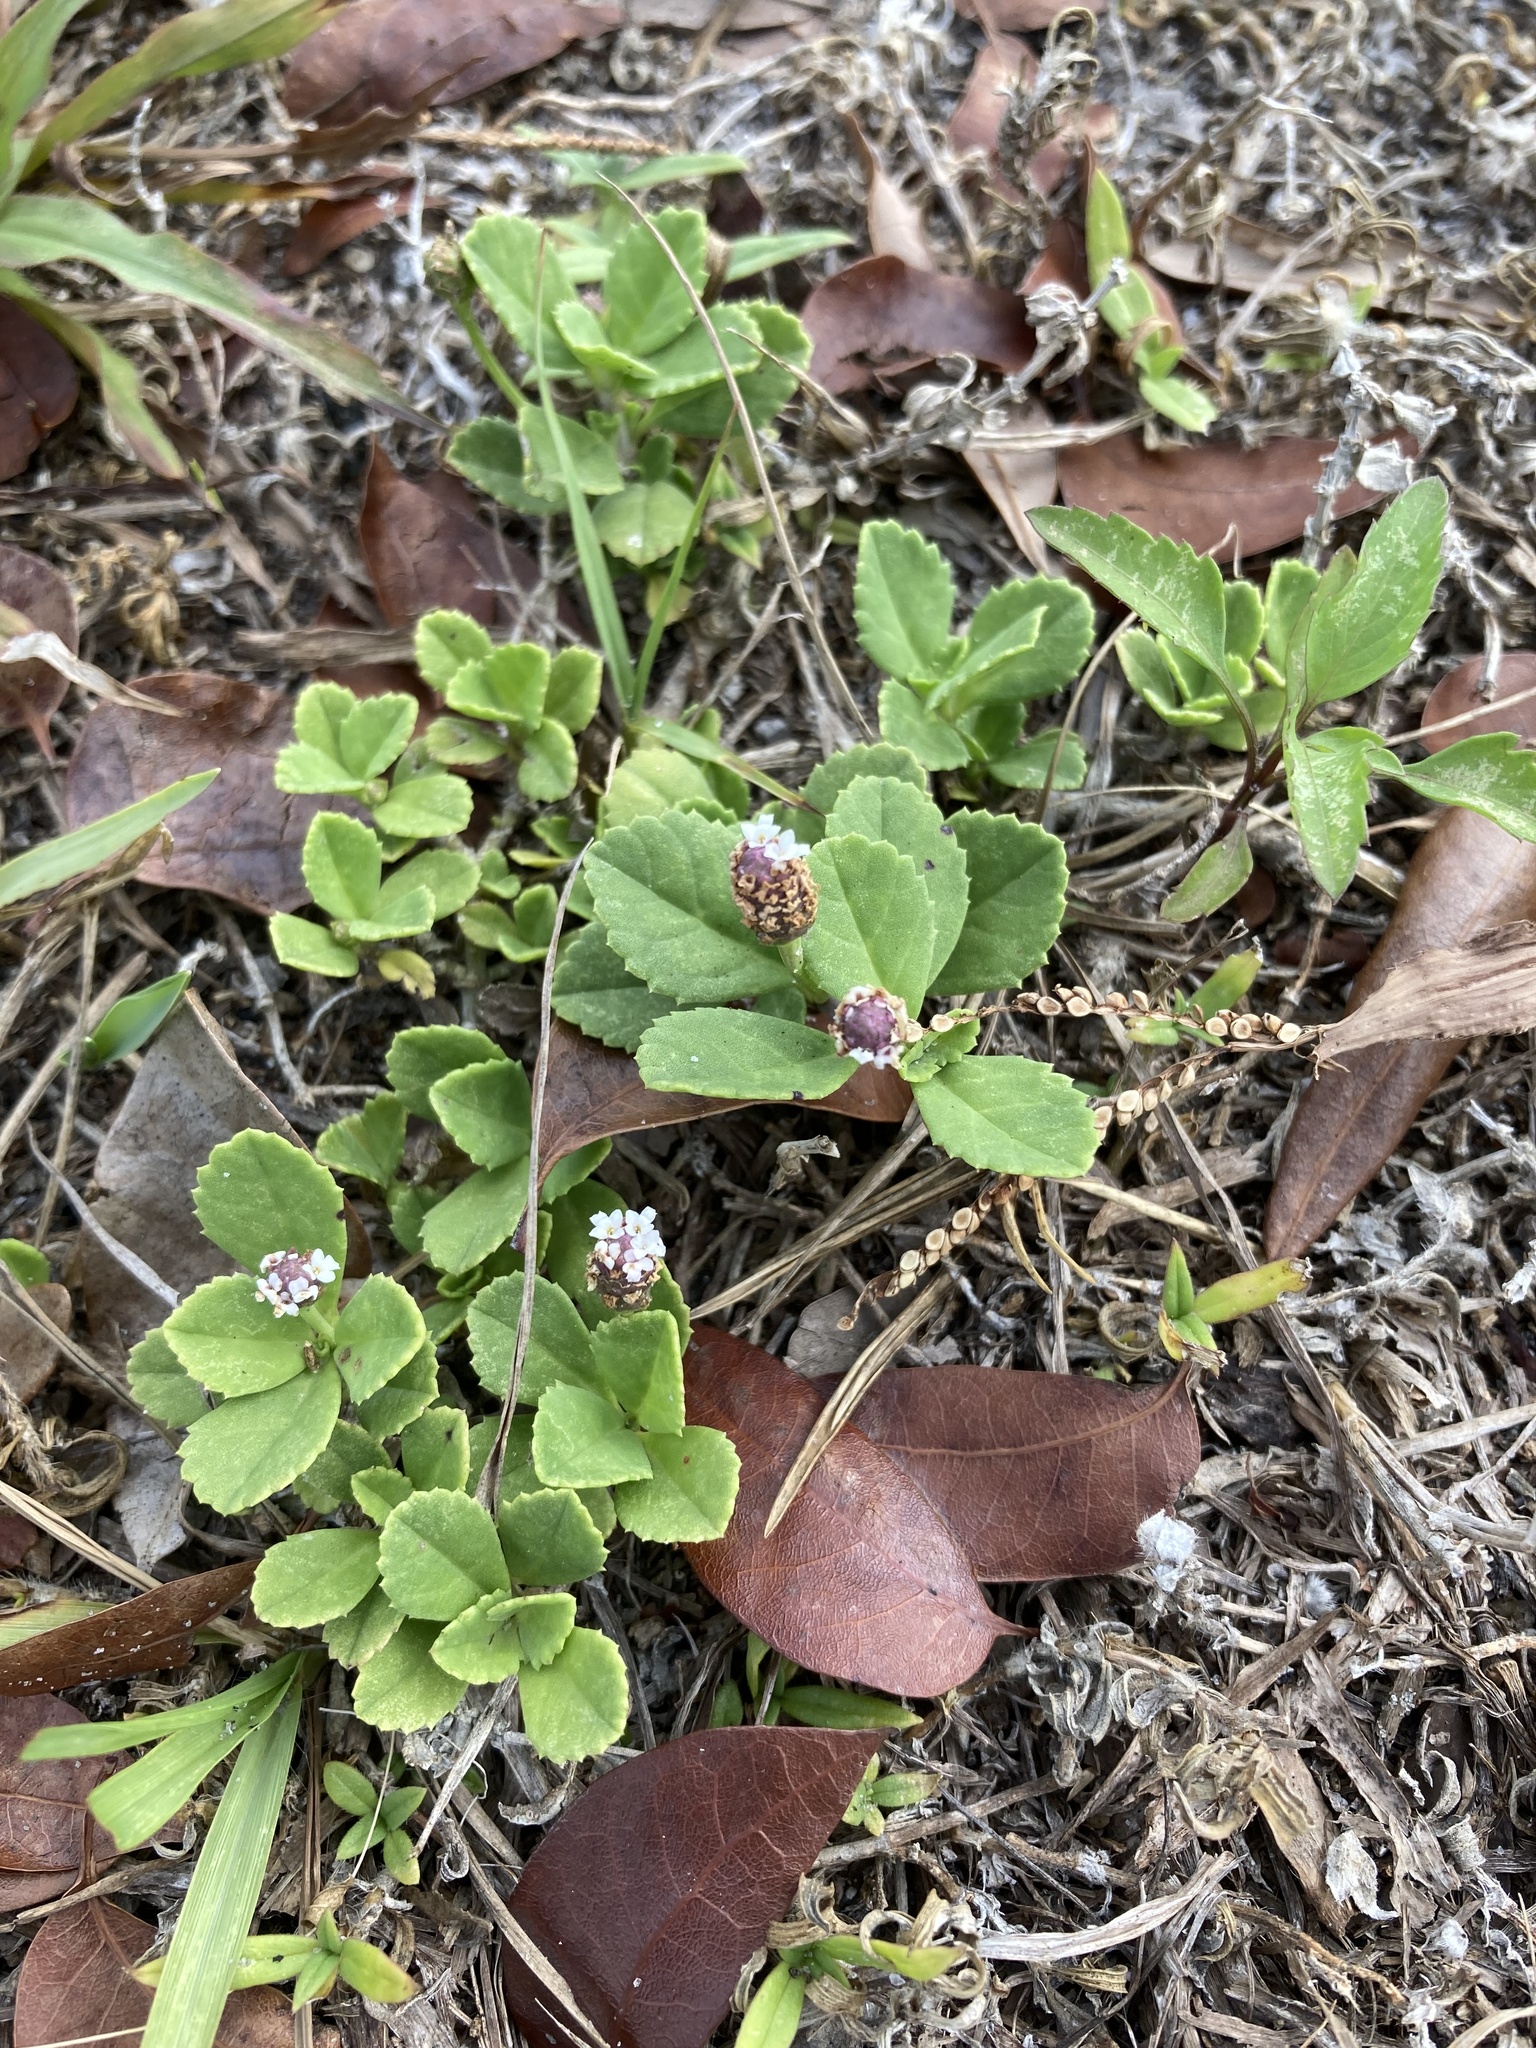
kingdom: Plantae
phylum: Tracheophyta
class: Magnoliopsida
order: Lamiales
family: Verbenaceae
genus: Phyla
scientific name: Phyla nodiflora
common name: Frogfruit
